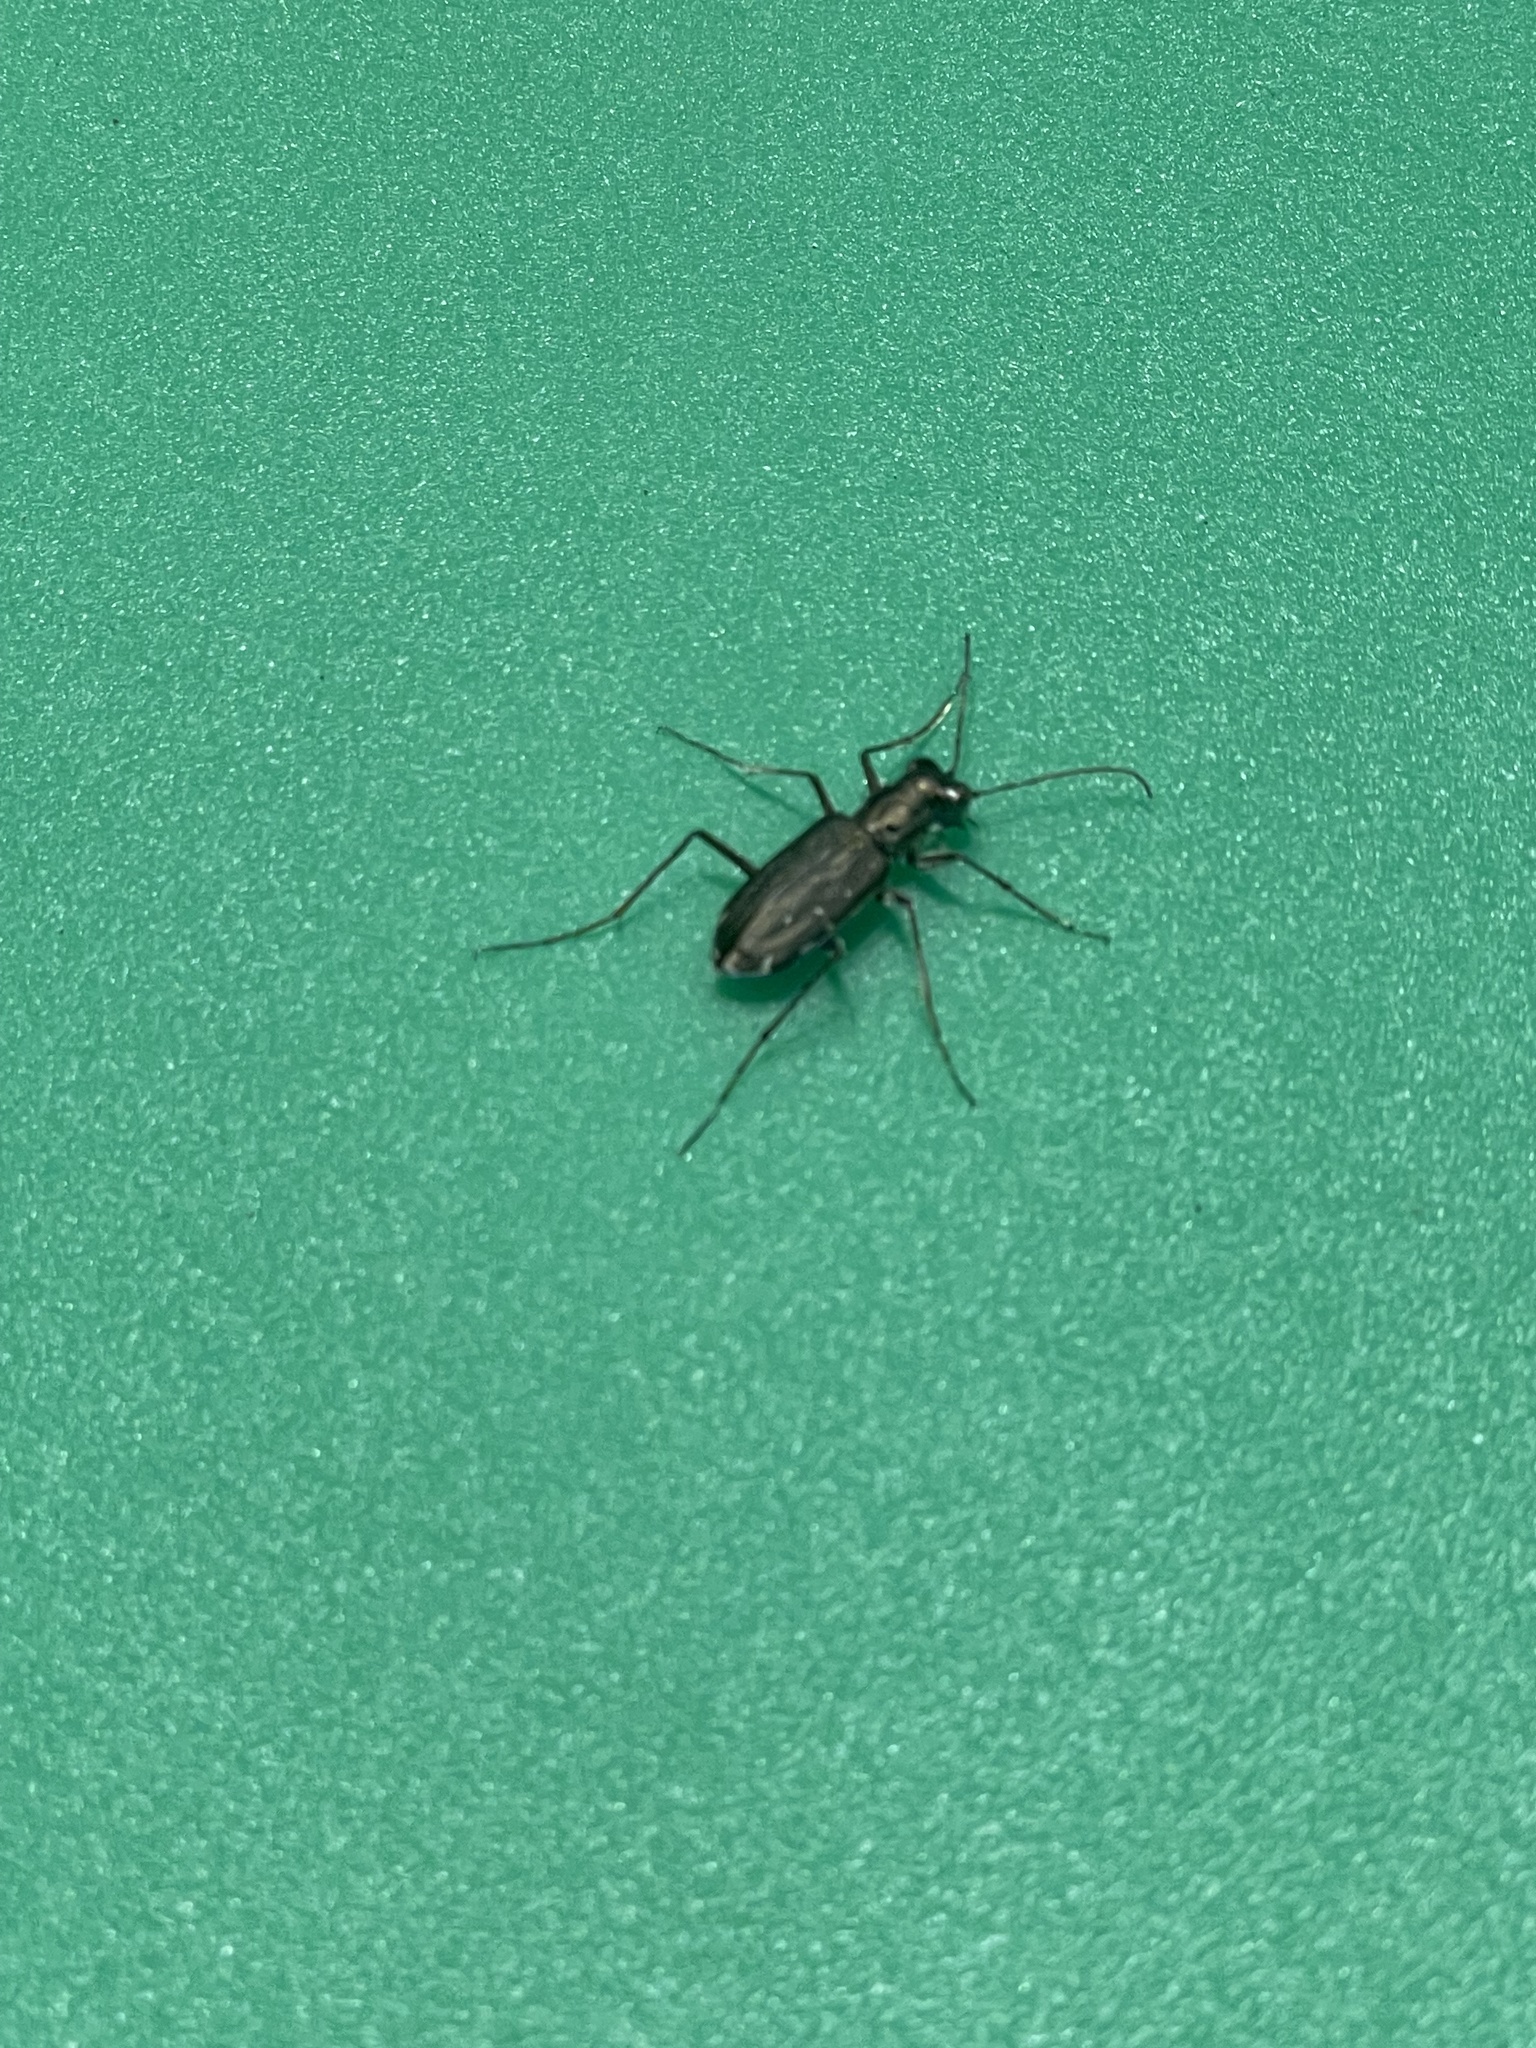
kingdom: Animalia
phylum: Arthropoda
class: Insecta
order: Coleoptera
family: Carabidae
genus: Cicindela
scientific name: Cicindela punctulata
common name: Punctured tiger beetle
